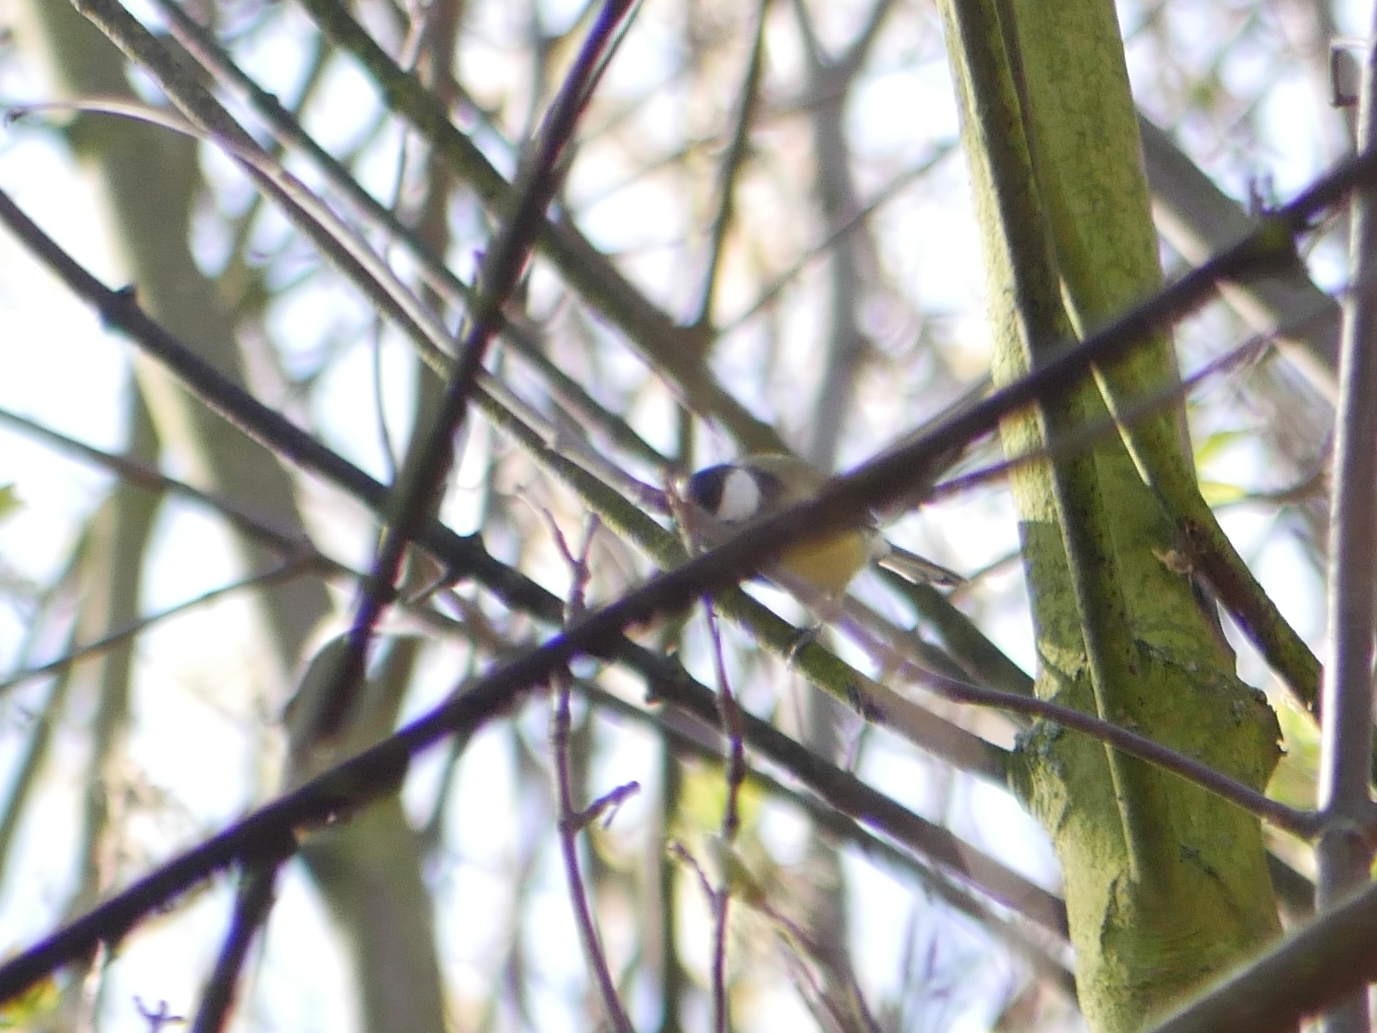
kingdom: Animalia
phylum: Chordata
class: Aves
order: Passeriformes
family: Paridae
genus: Parus
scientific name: Parus major
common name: Great tit
